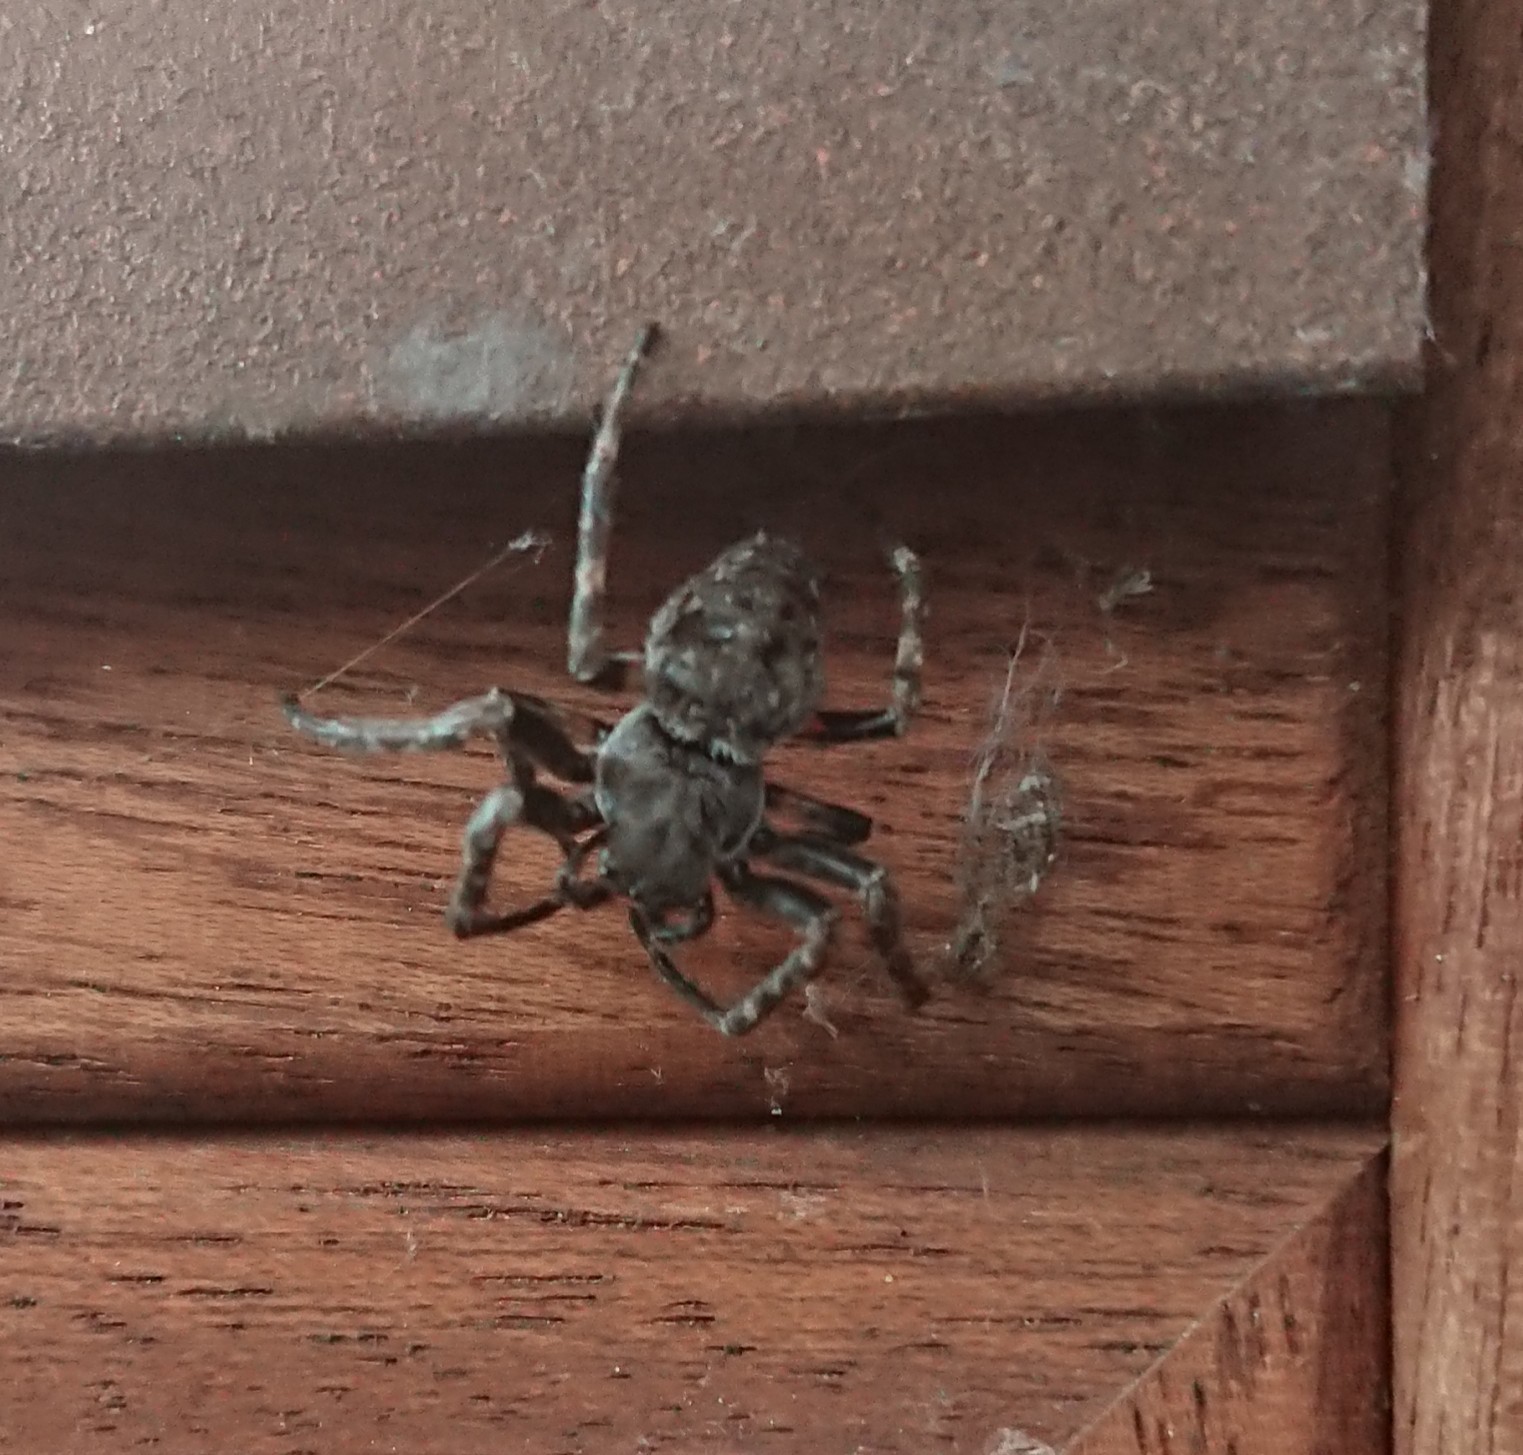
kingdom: Animalia
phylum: Arthropoda
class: Arachnida
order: Araneae
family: Araneidae
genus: Nuctenea
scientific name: Nuctenea umbratica
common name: Toad spider
